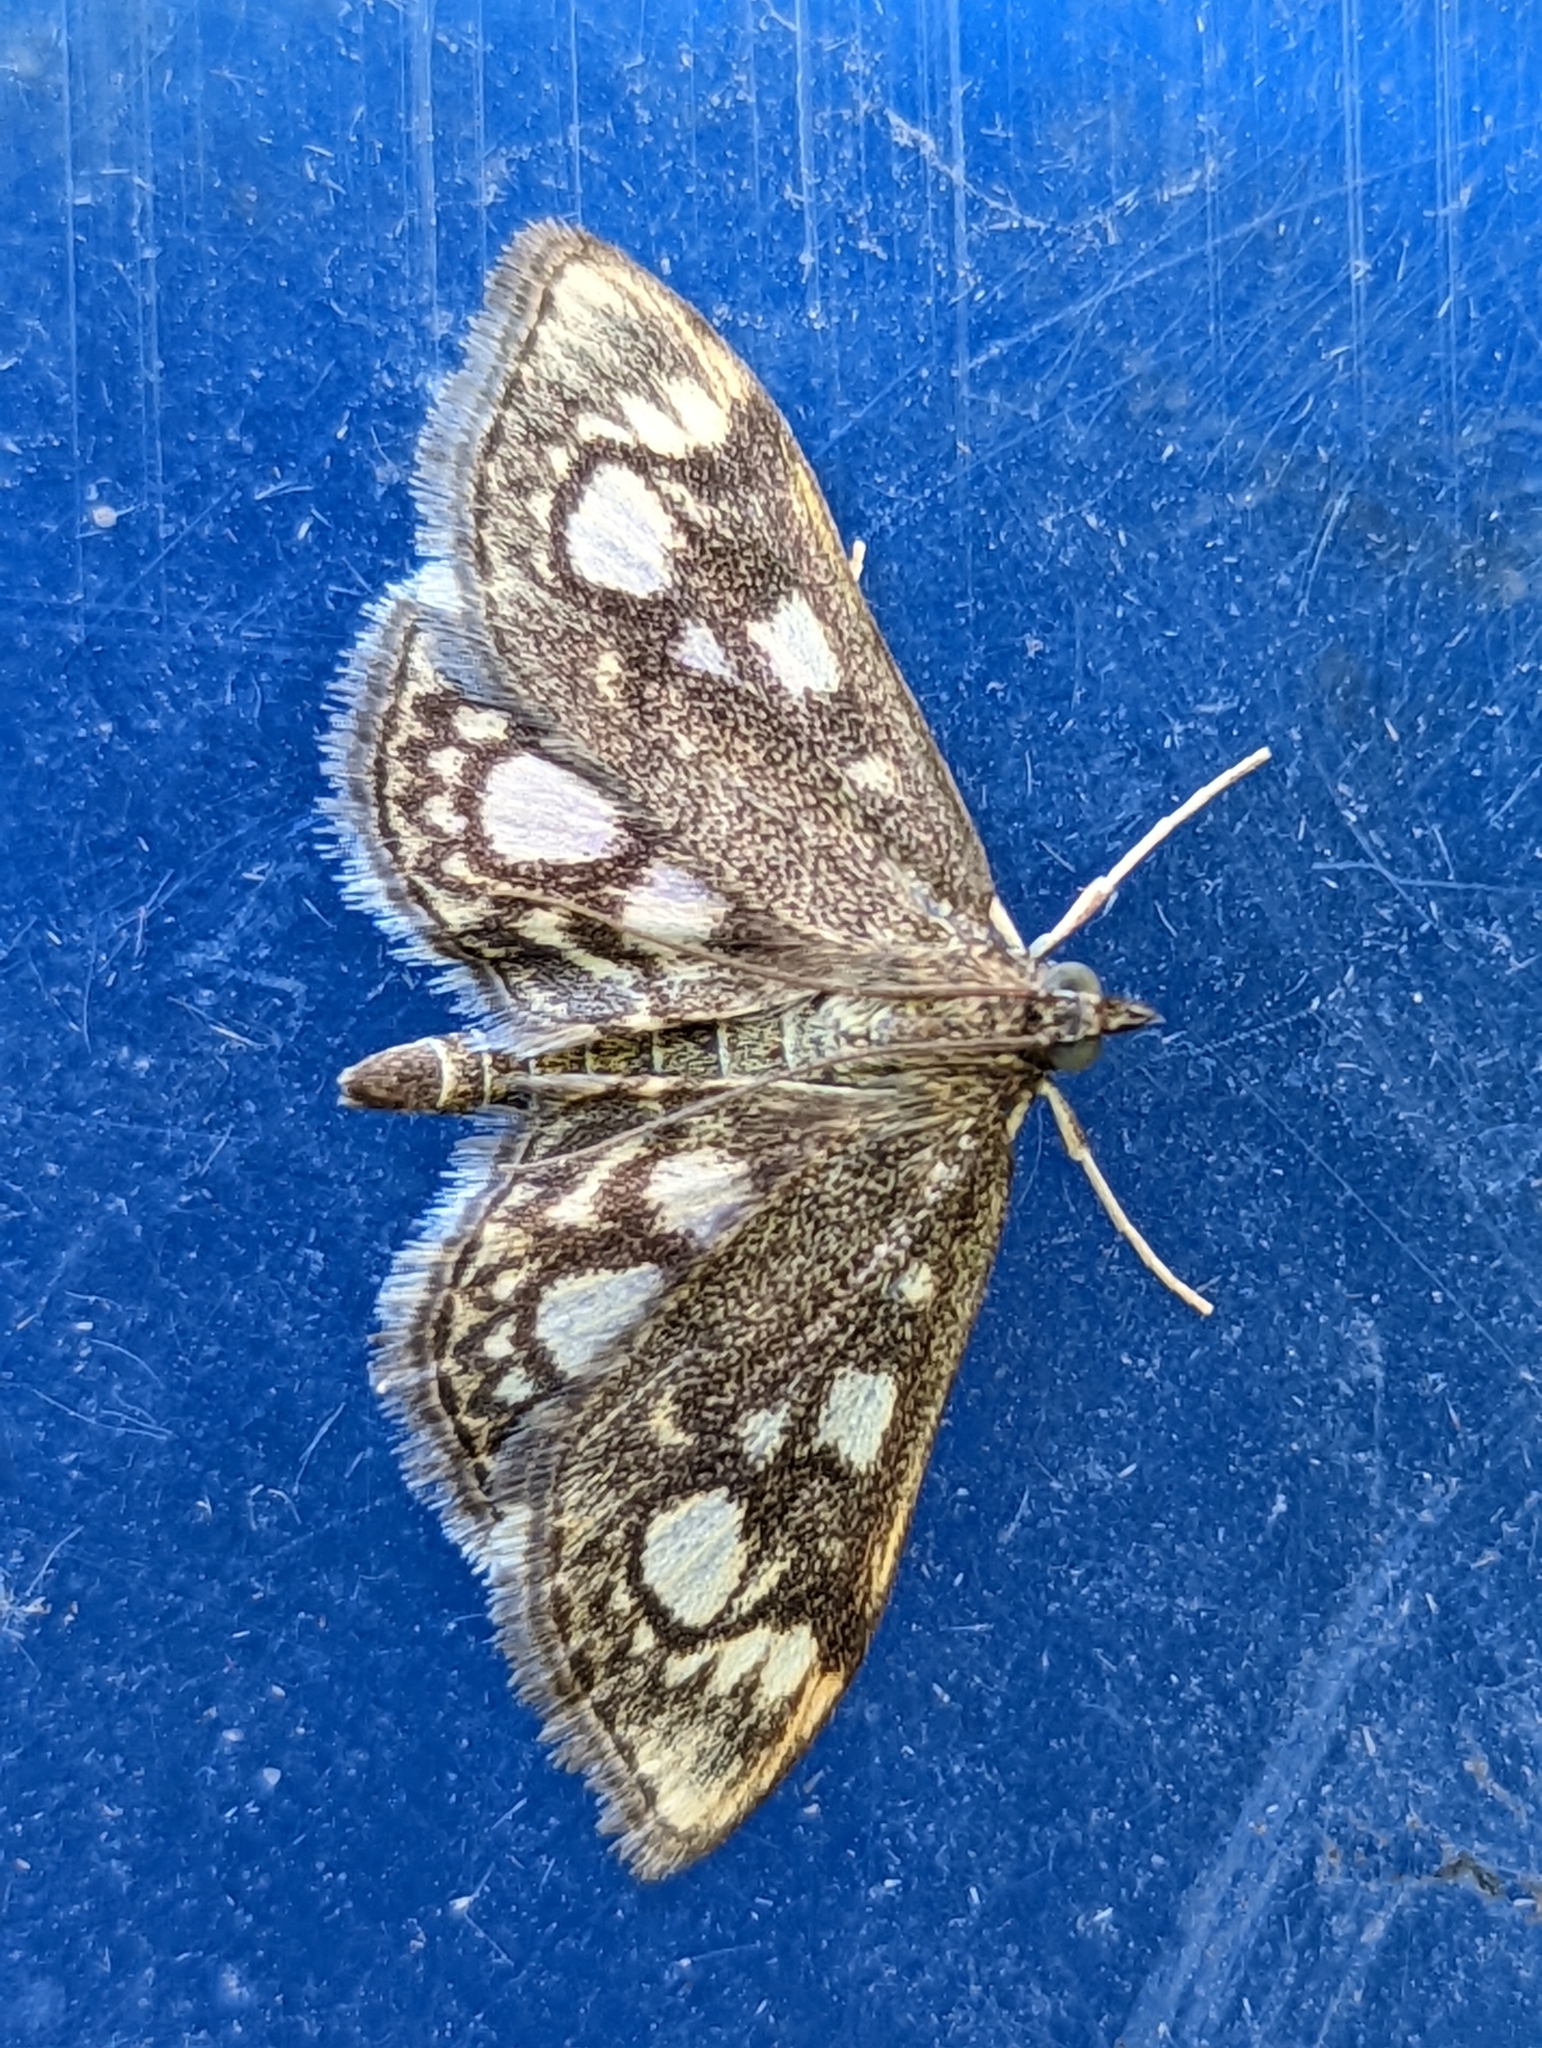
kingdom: Animalia
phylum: Arthropoda
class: Insecta
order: Lepidoptera
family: Crambidae
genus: Anania
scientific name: Anania coronata
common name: Elder pearl
